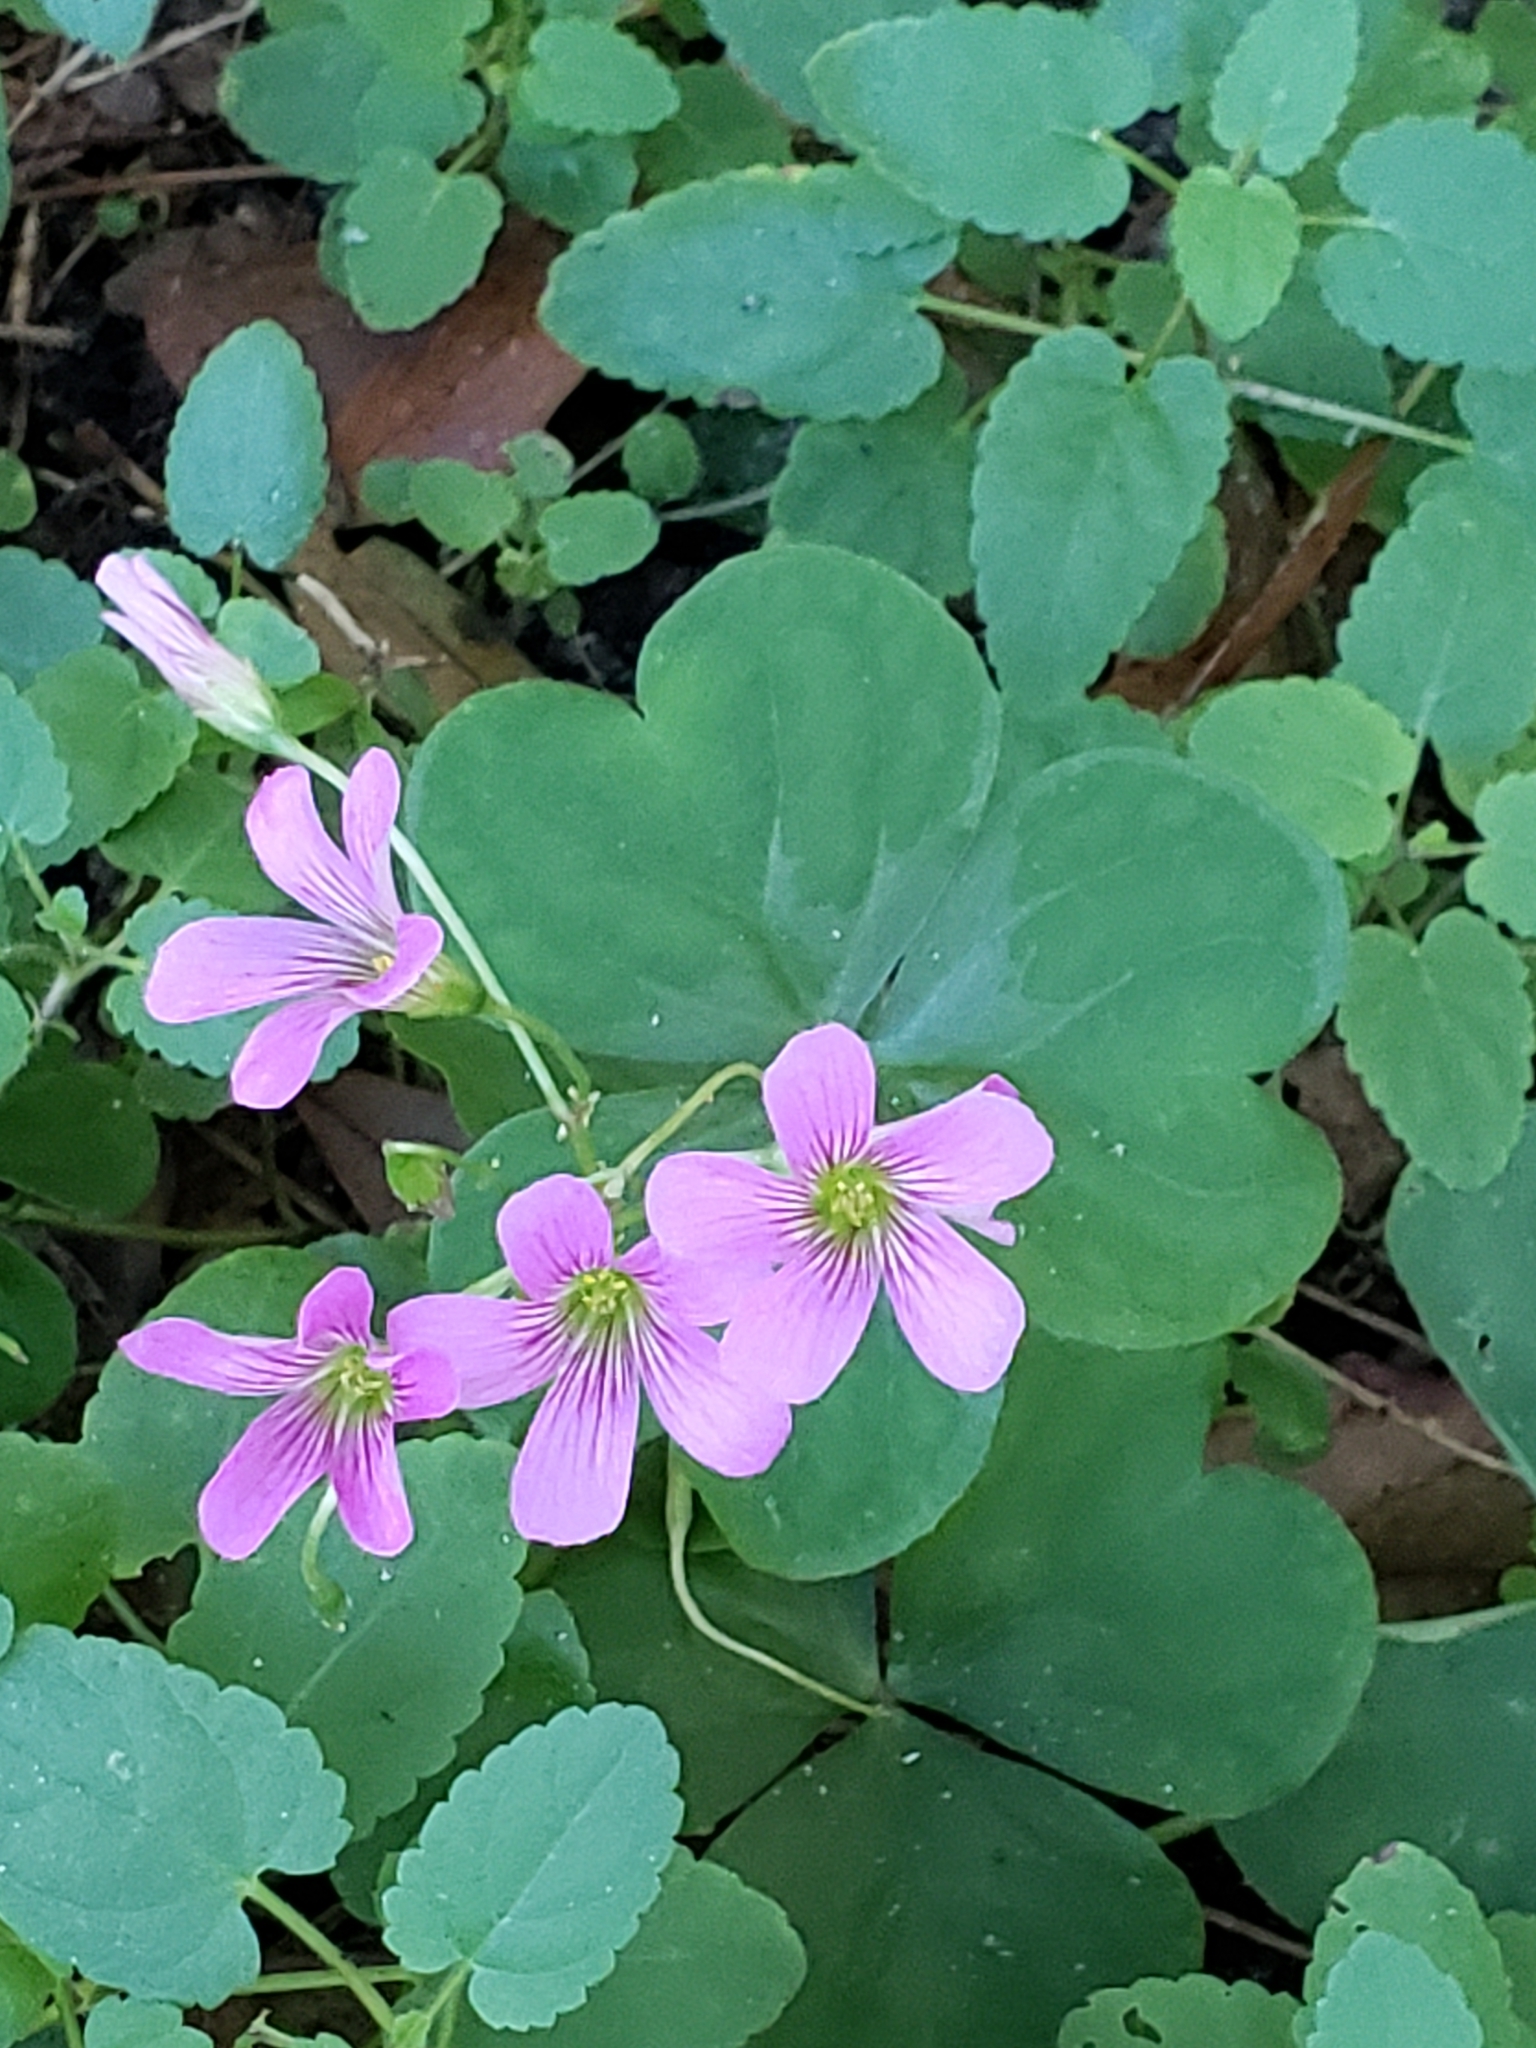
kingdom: Plantae
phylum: Tracheophyta
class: Magnoliopsida
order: Oxalidales
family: Oxalidaceae
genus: Oxalis
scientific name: Oxalis debilis
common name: Large-flowered pink-sorrel
